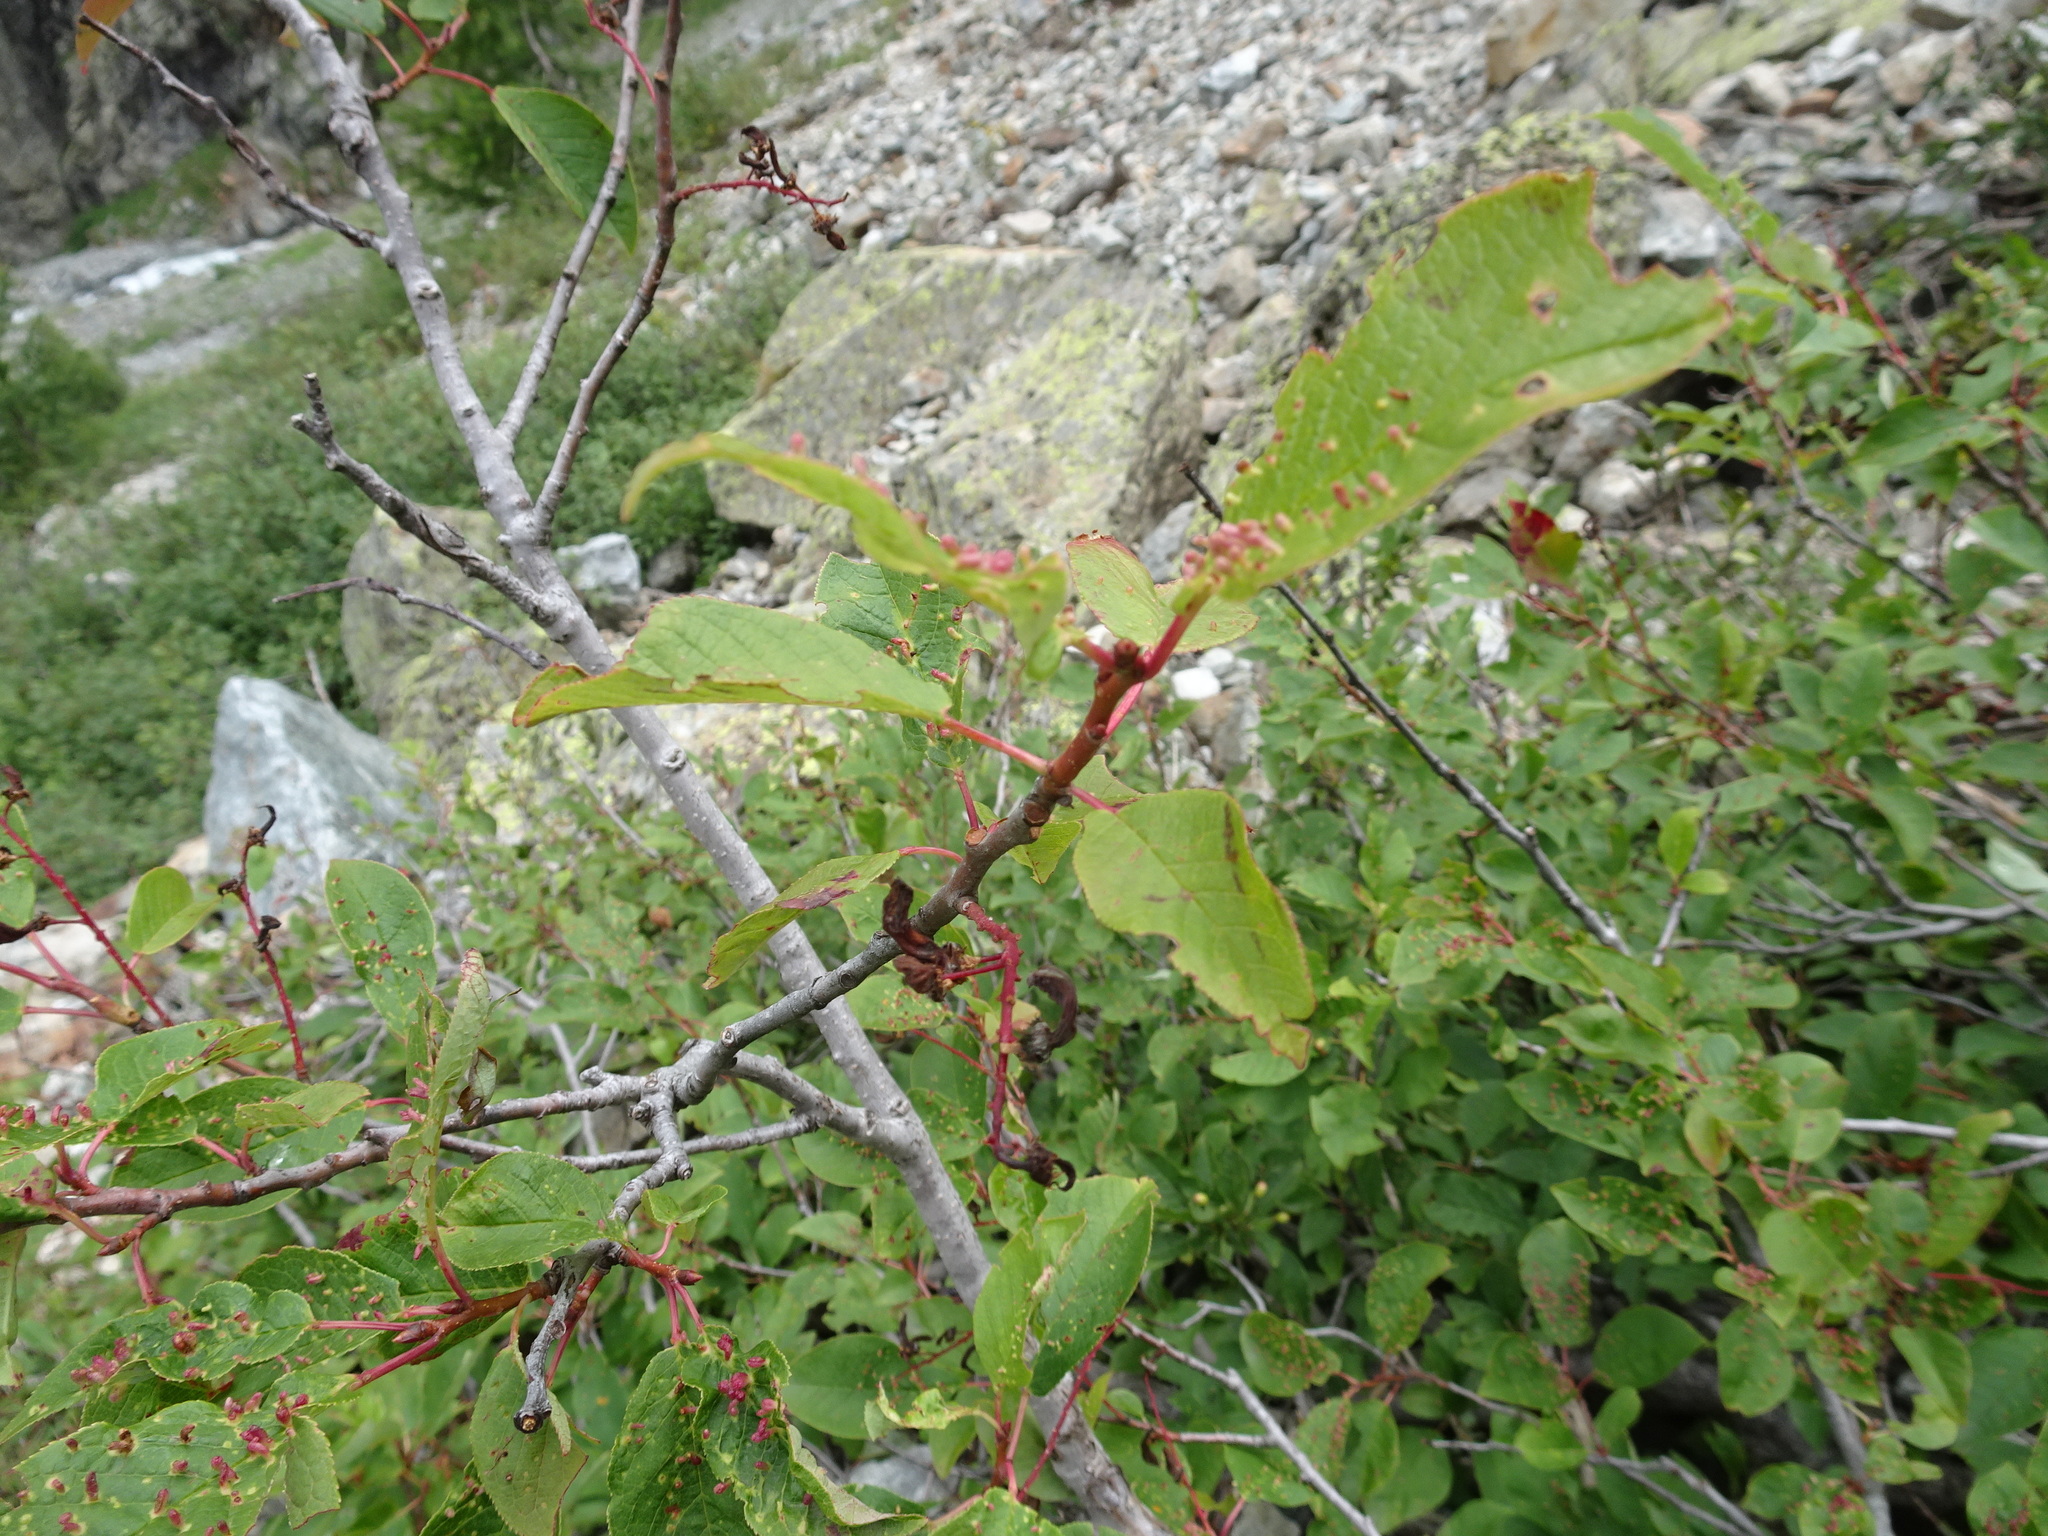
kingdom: Plantae
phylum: Tracheophyta
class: Magnoliopsida
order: Rosales
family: Rosaceae
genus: Prunus
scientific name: Prunus padus
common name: Bird cherry
